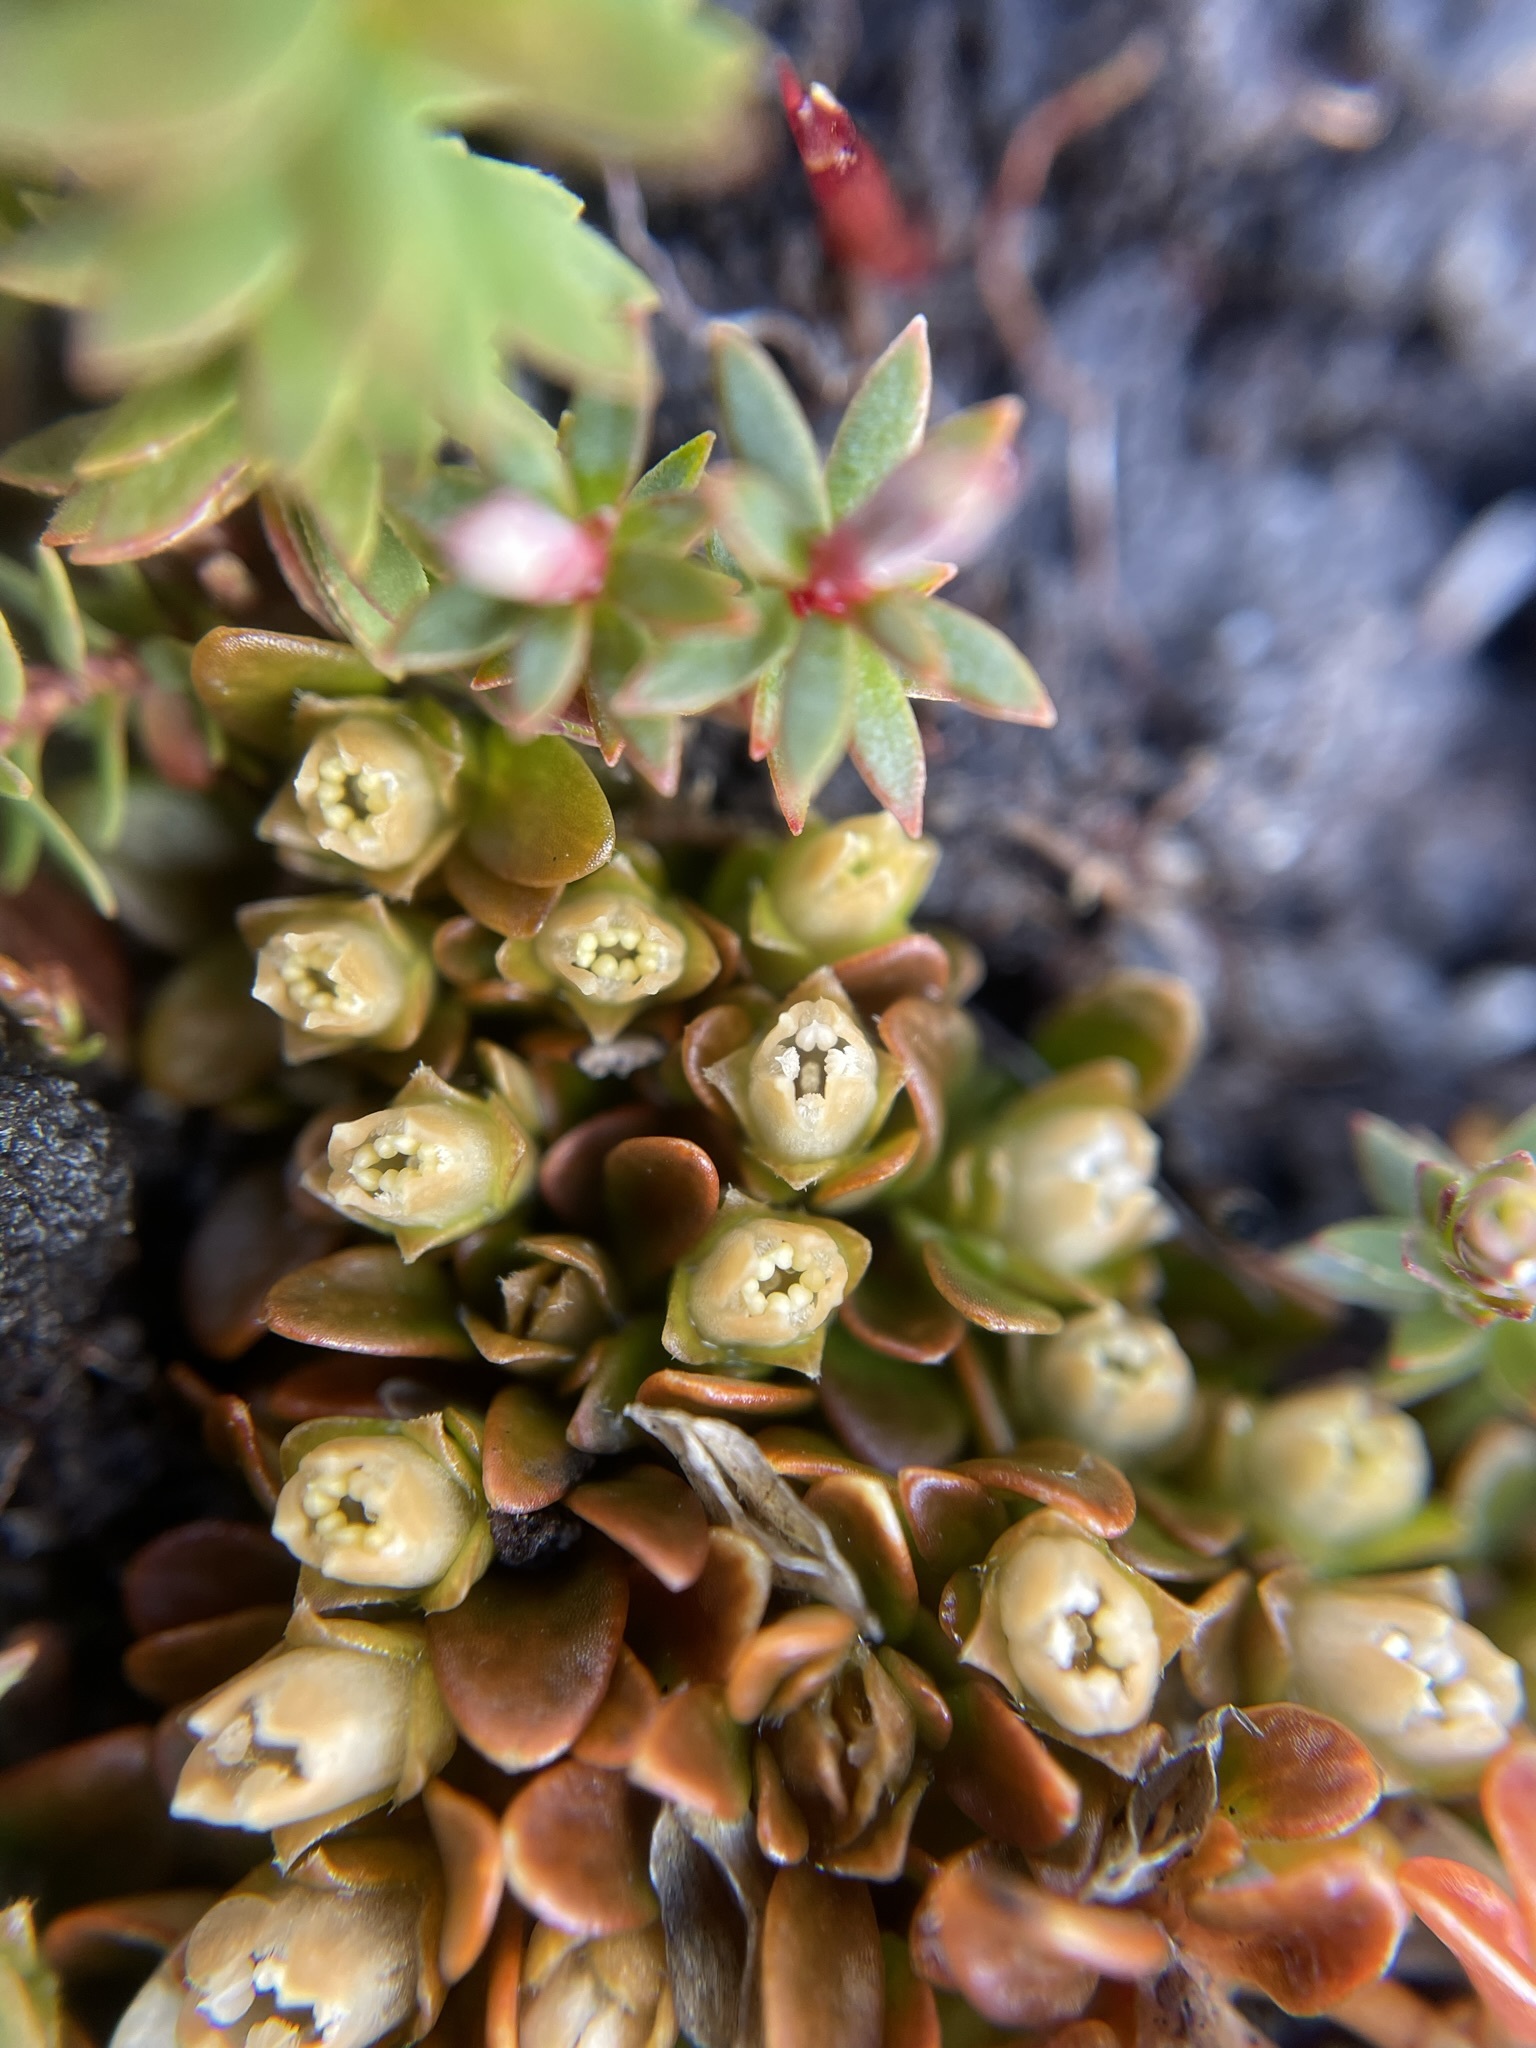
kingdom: Plantae
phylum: Tracheophyta
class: Magnoliopsida
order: Gentianales
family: Loganiaceae
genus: Schizacme
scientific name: Schizacme montana
